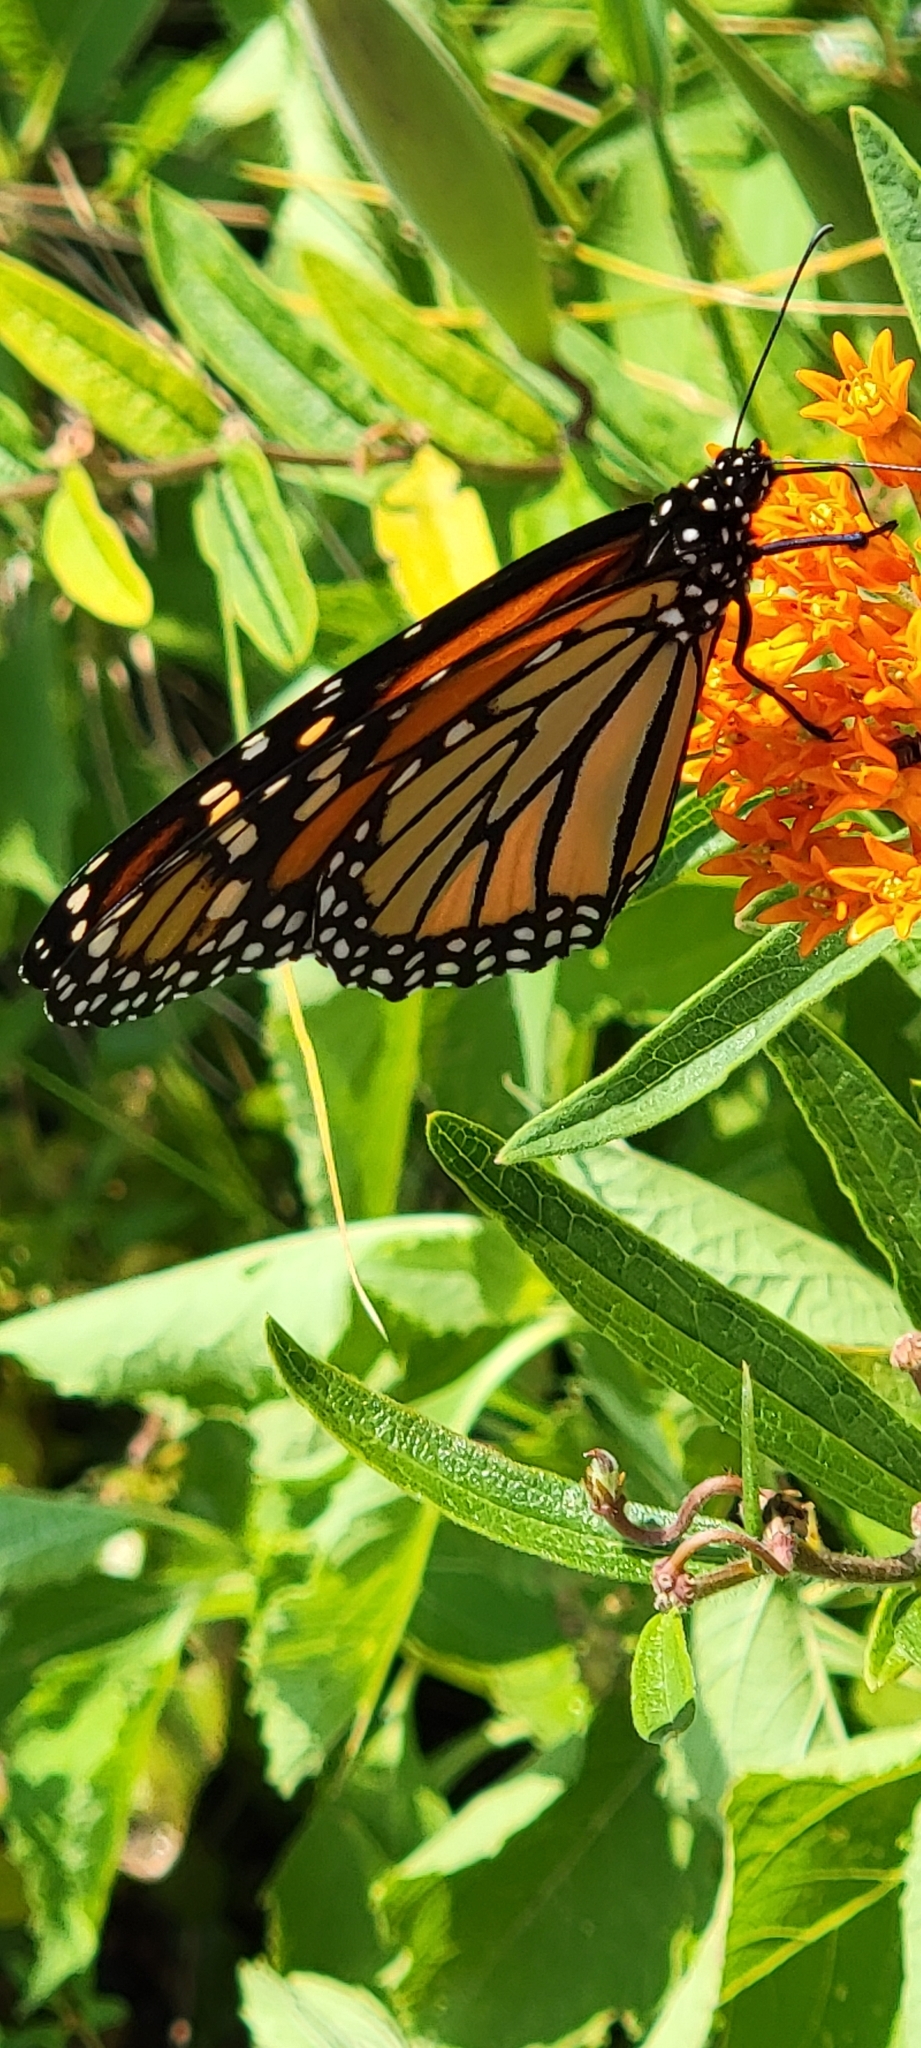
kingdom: Animalia
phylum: Arthropoda
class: Insecta
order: Lepidoptera
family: Nymphalidae
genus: Danaus
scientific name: Danaus plexippus
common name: Monarch
